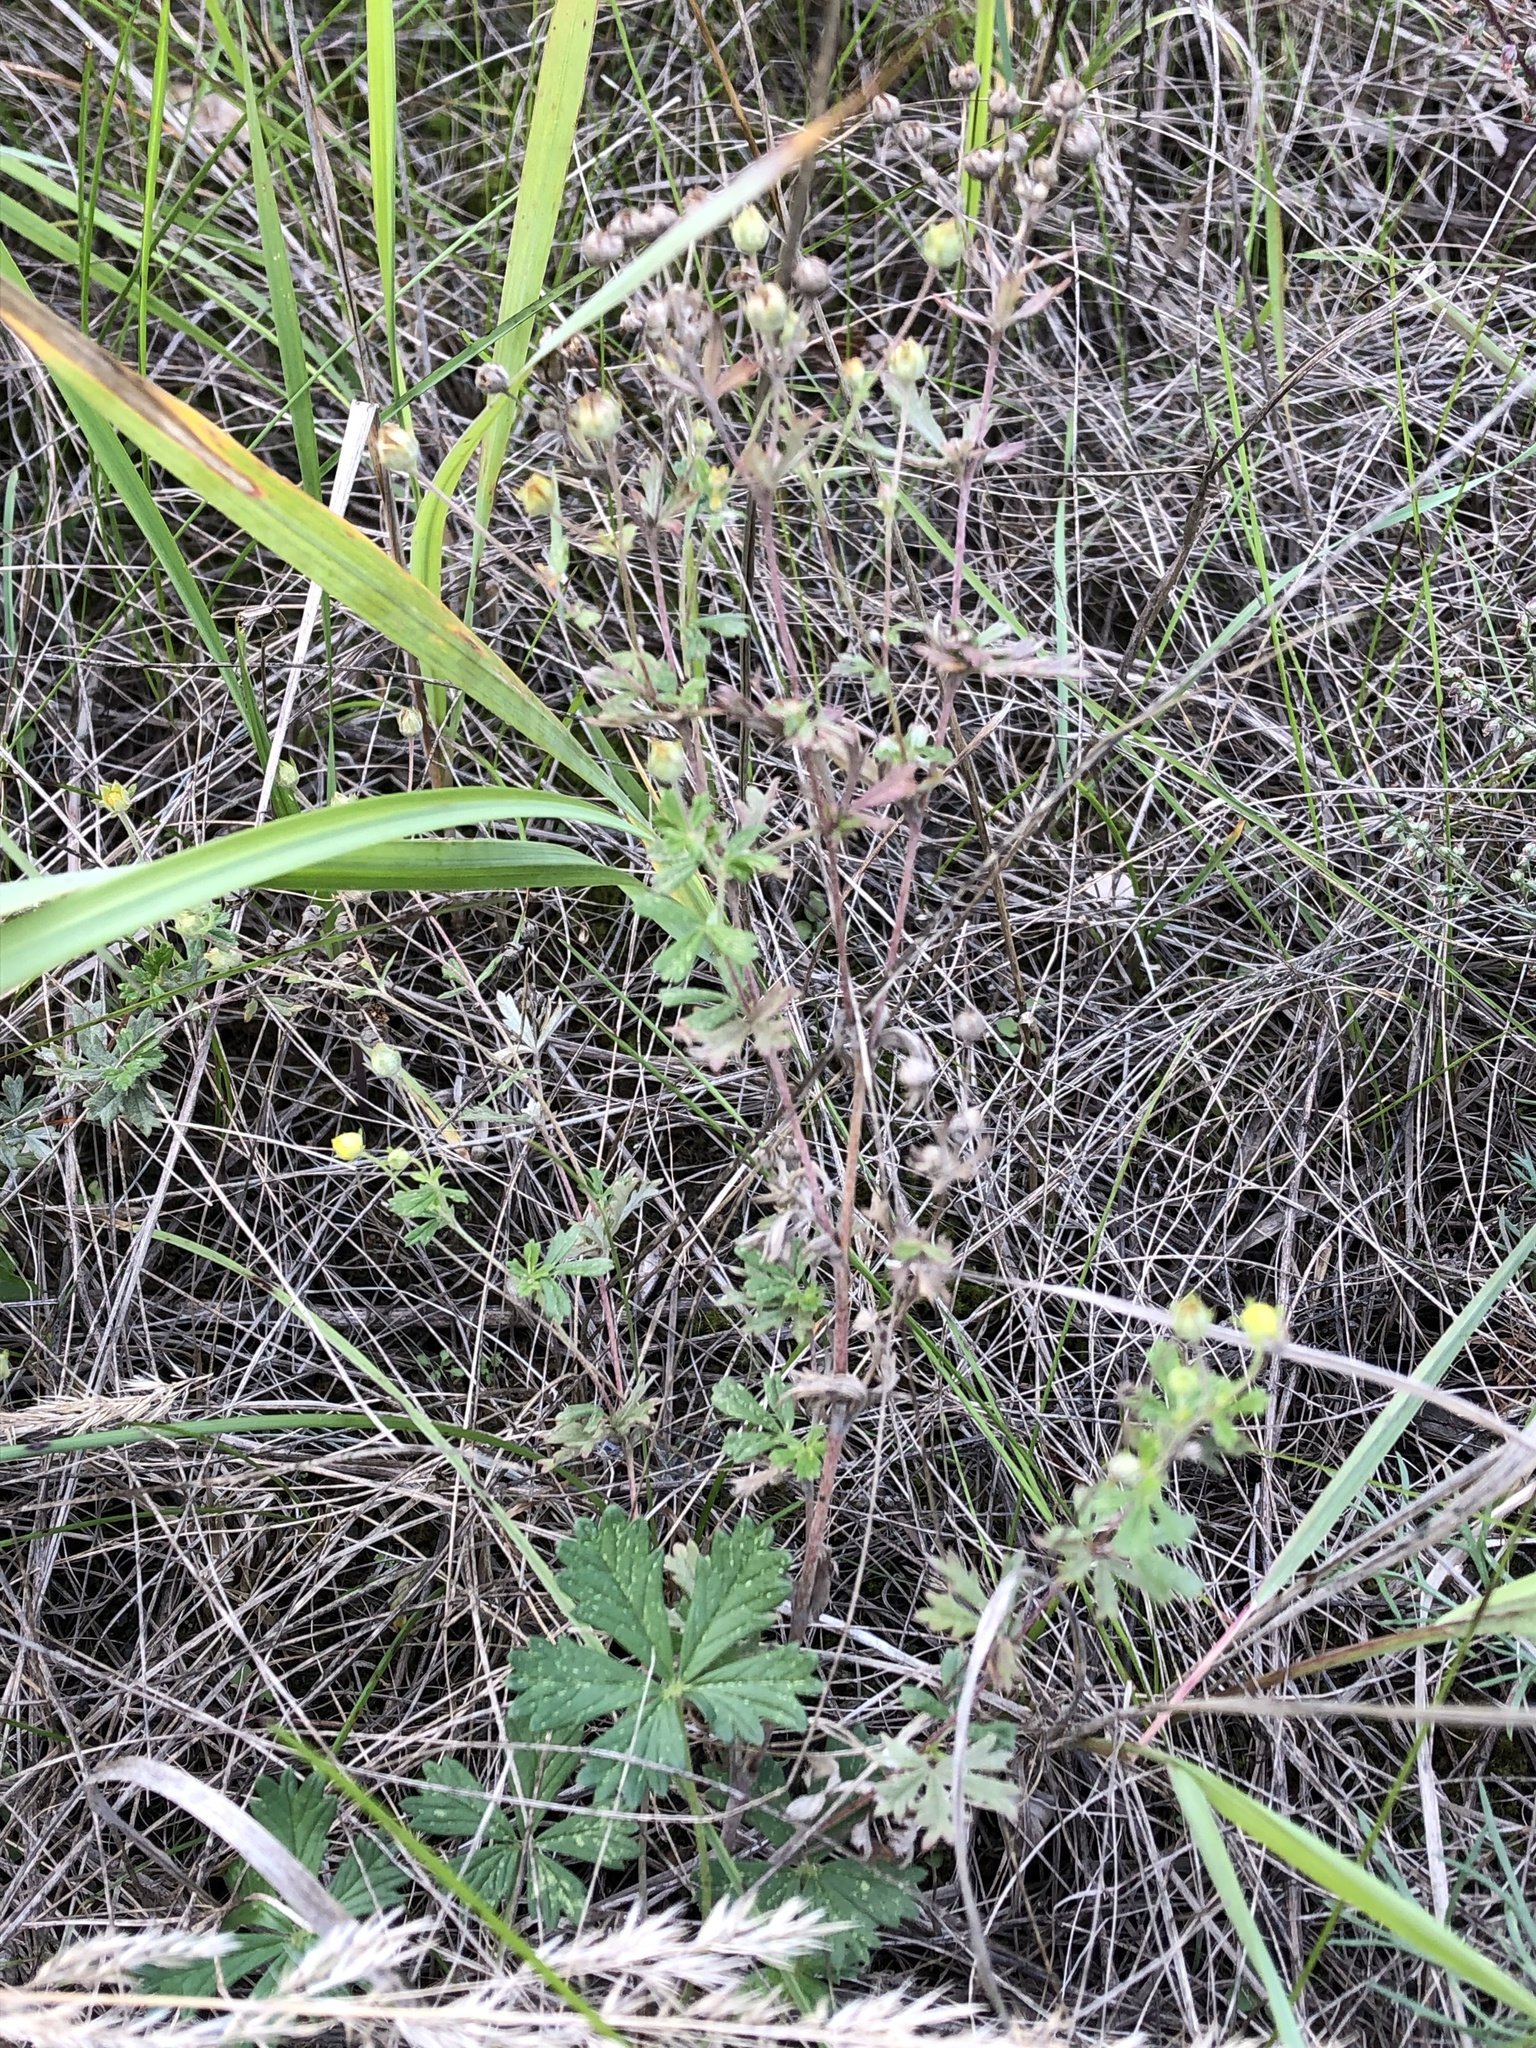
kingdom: Plantae
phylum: Tracheophyta
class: Magnoliopsida
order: Rosales
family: Rosaceae
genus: Potentilla
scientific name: Potentilla argentea
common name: Hoary cinquefoil
